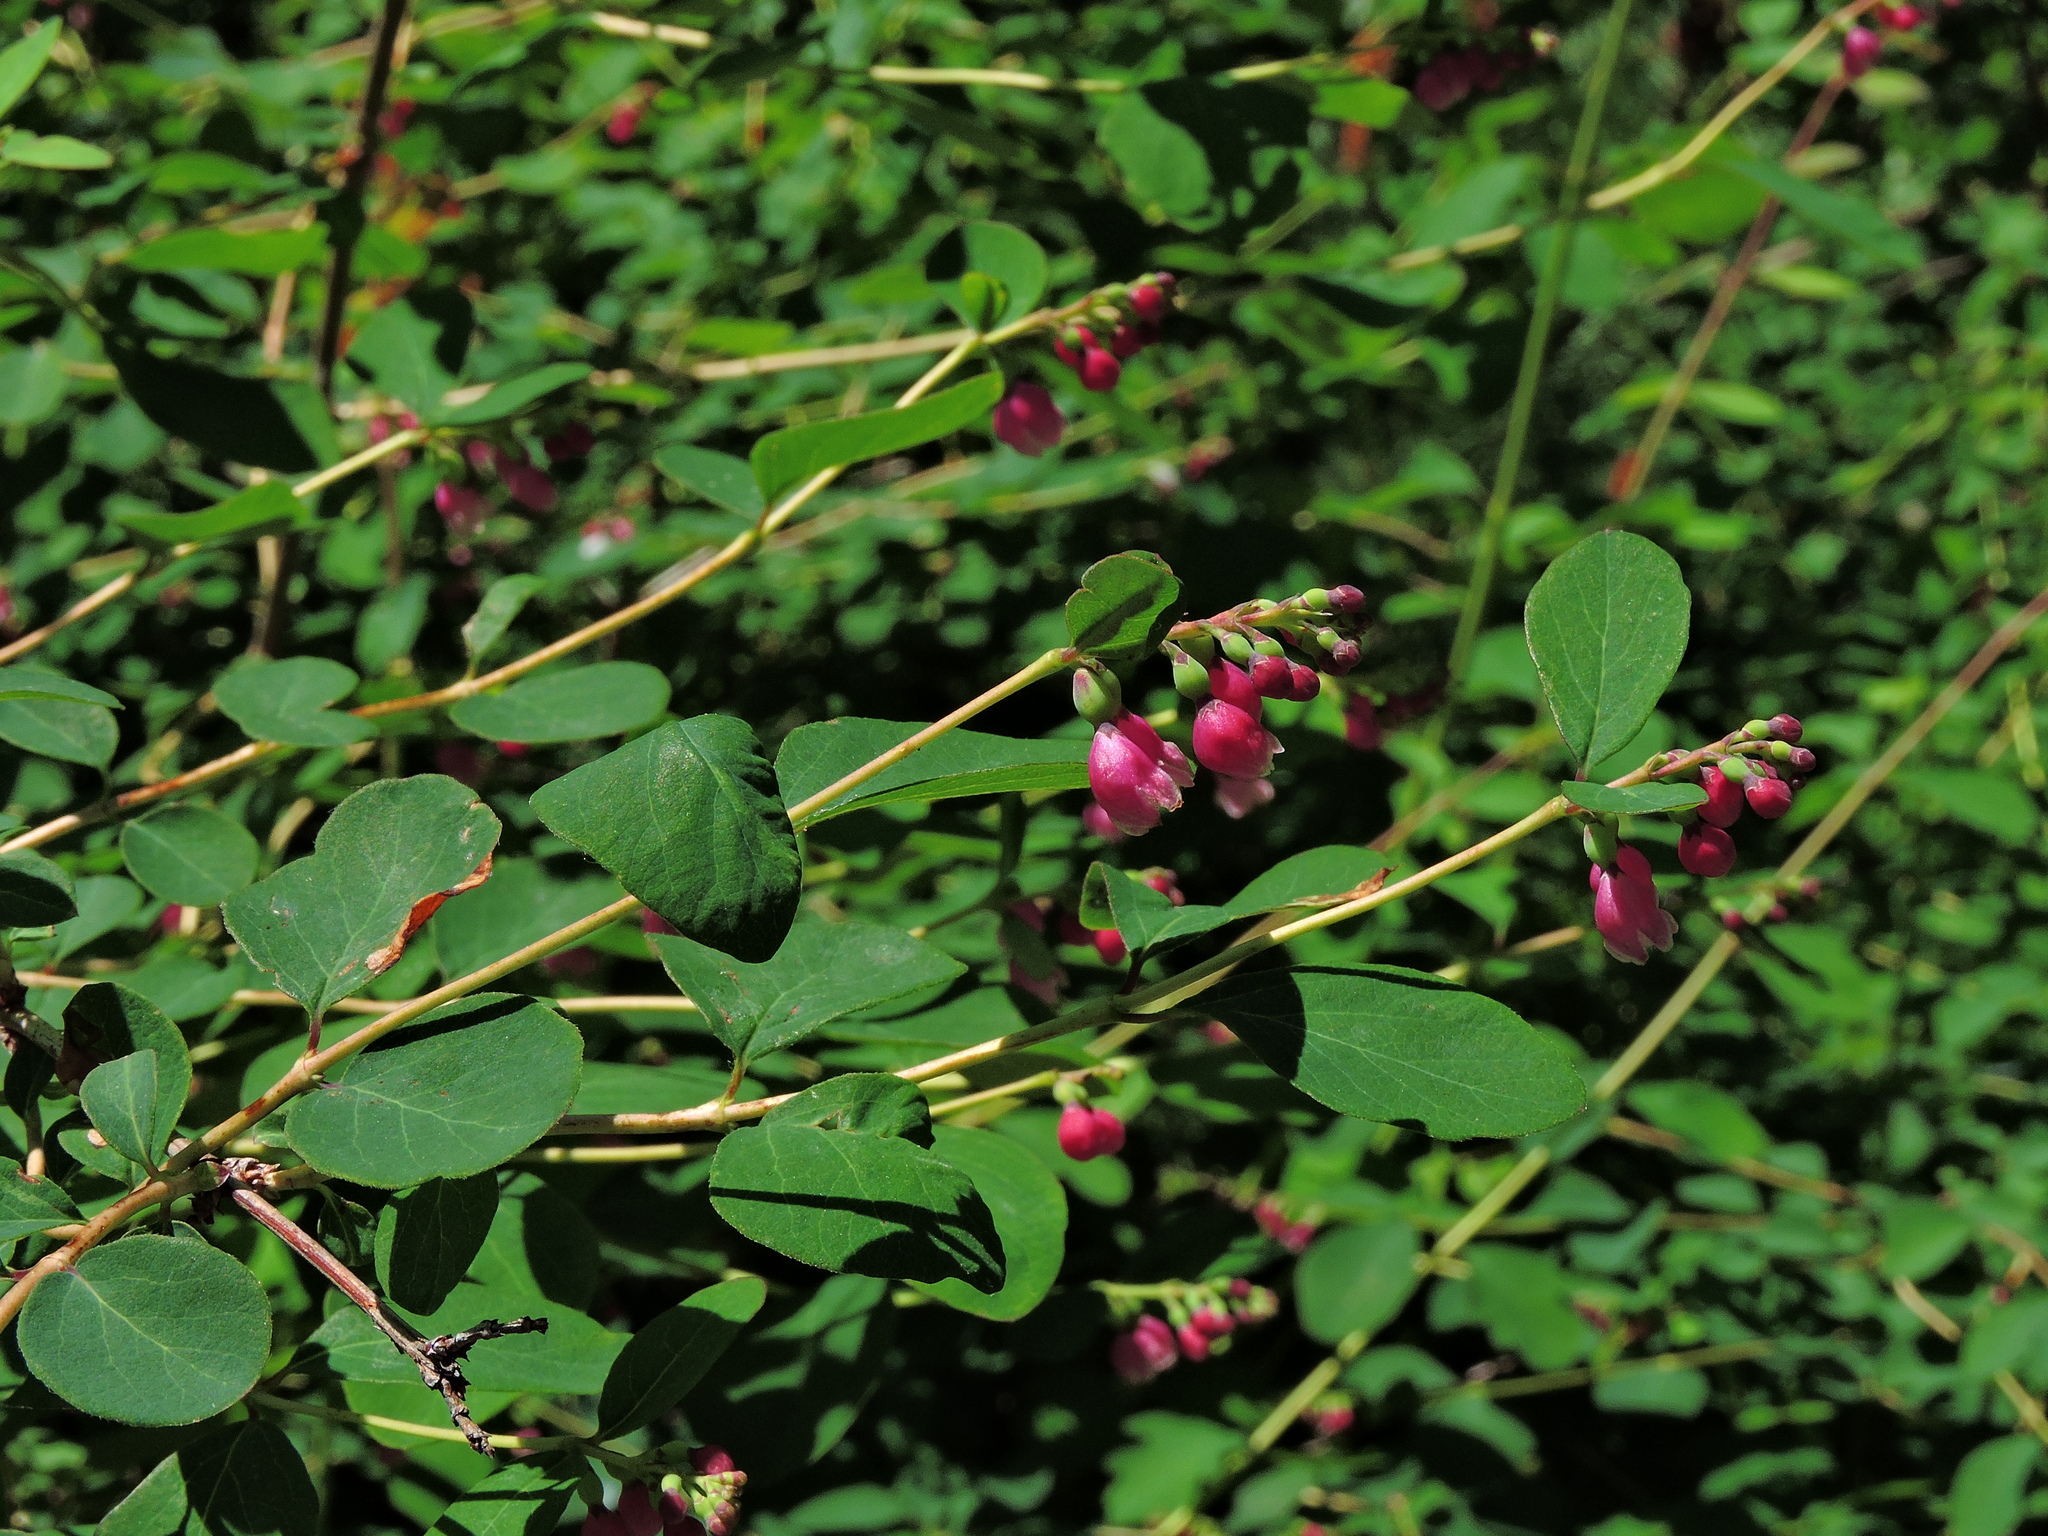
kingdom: Plantae
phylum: Tracheophyta
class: Magnoliopsida
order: Dipsacales
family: Caprifoliaceae
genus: Symphoricarpos
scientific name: Symphoricarpos albus
